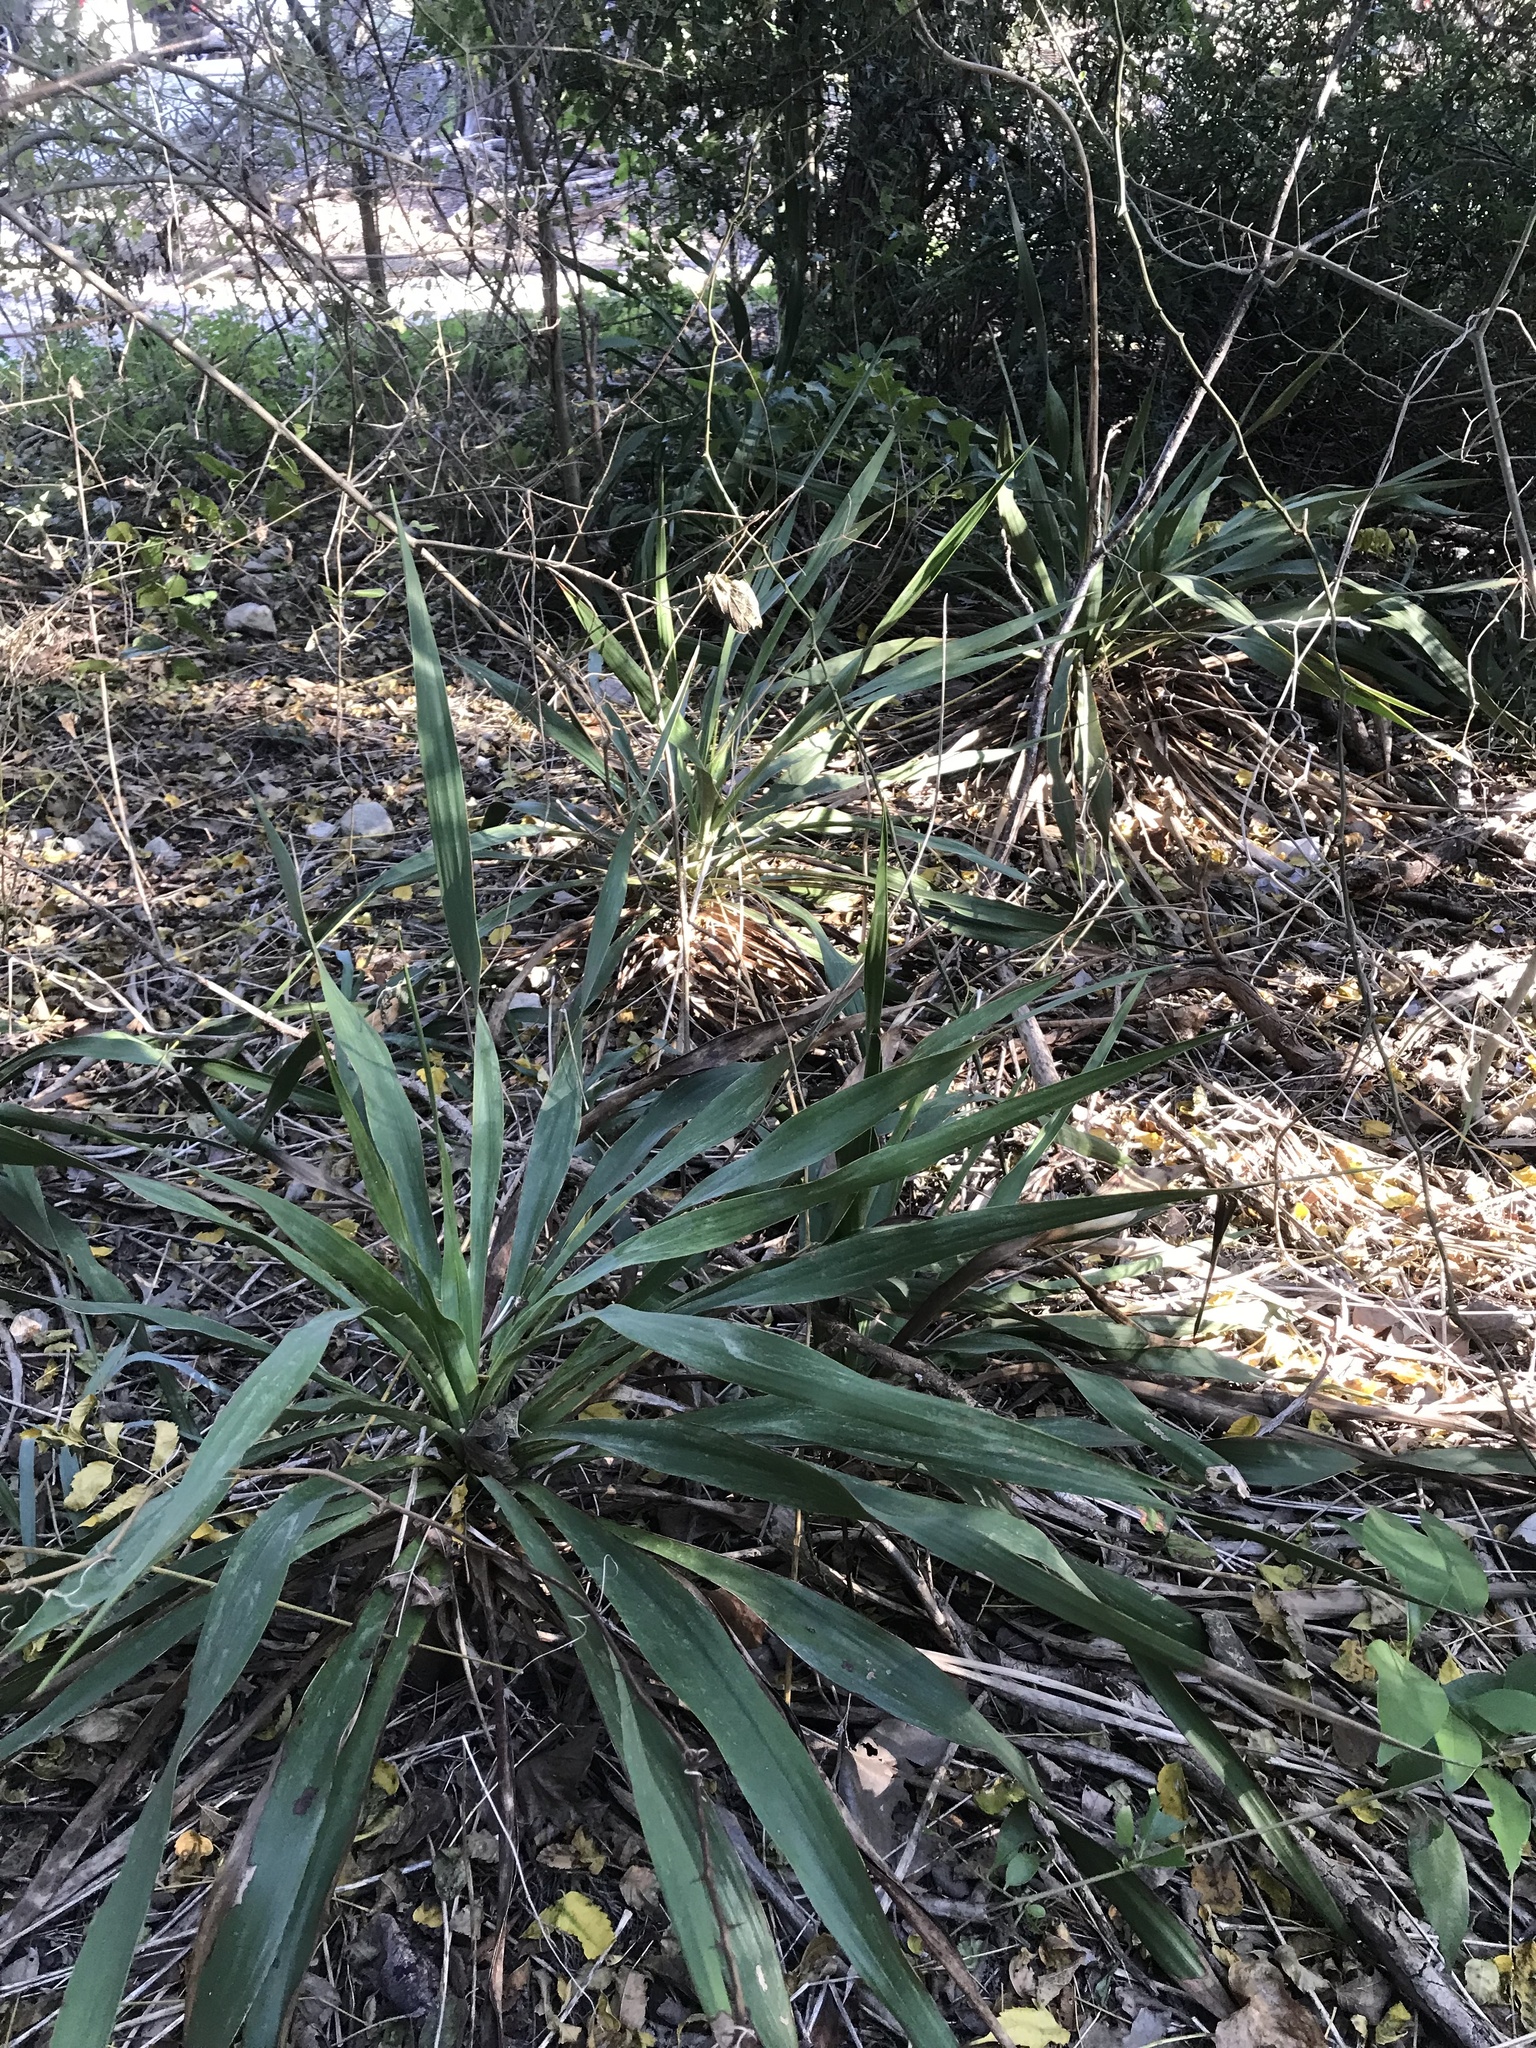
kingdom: Plantae
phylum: Tracheophyta
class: Liliopsida
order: Asparagales
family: Asparagaceae
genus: Yucca
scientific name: Yucca rupicola
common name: Twisted-leaf spanish-dagger
